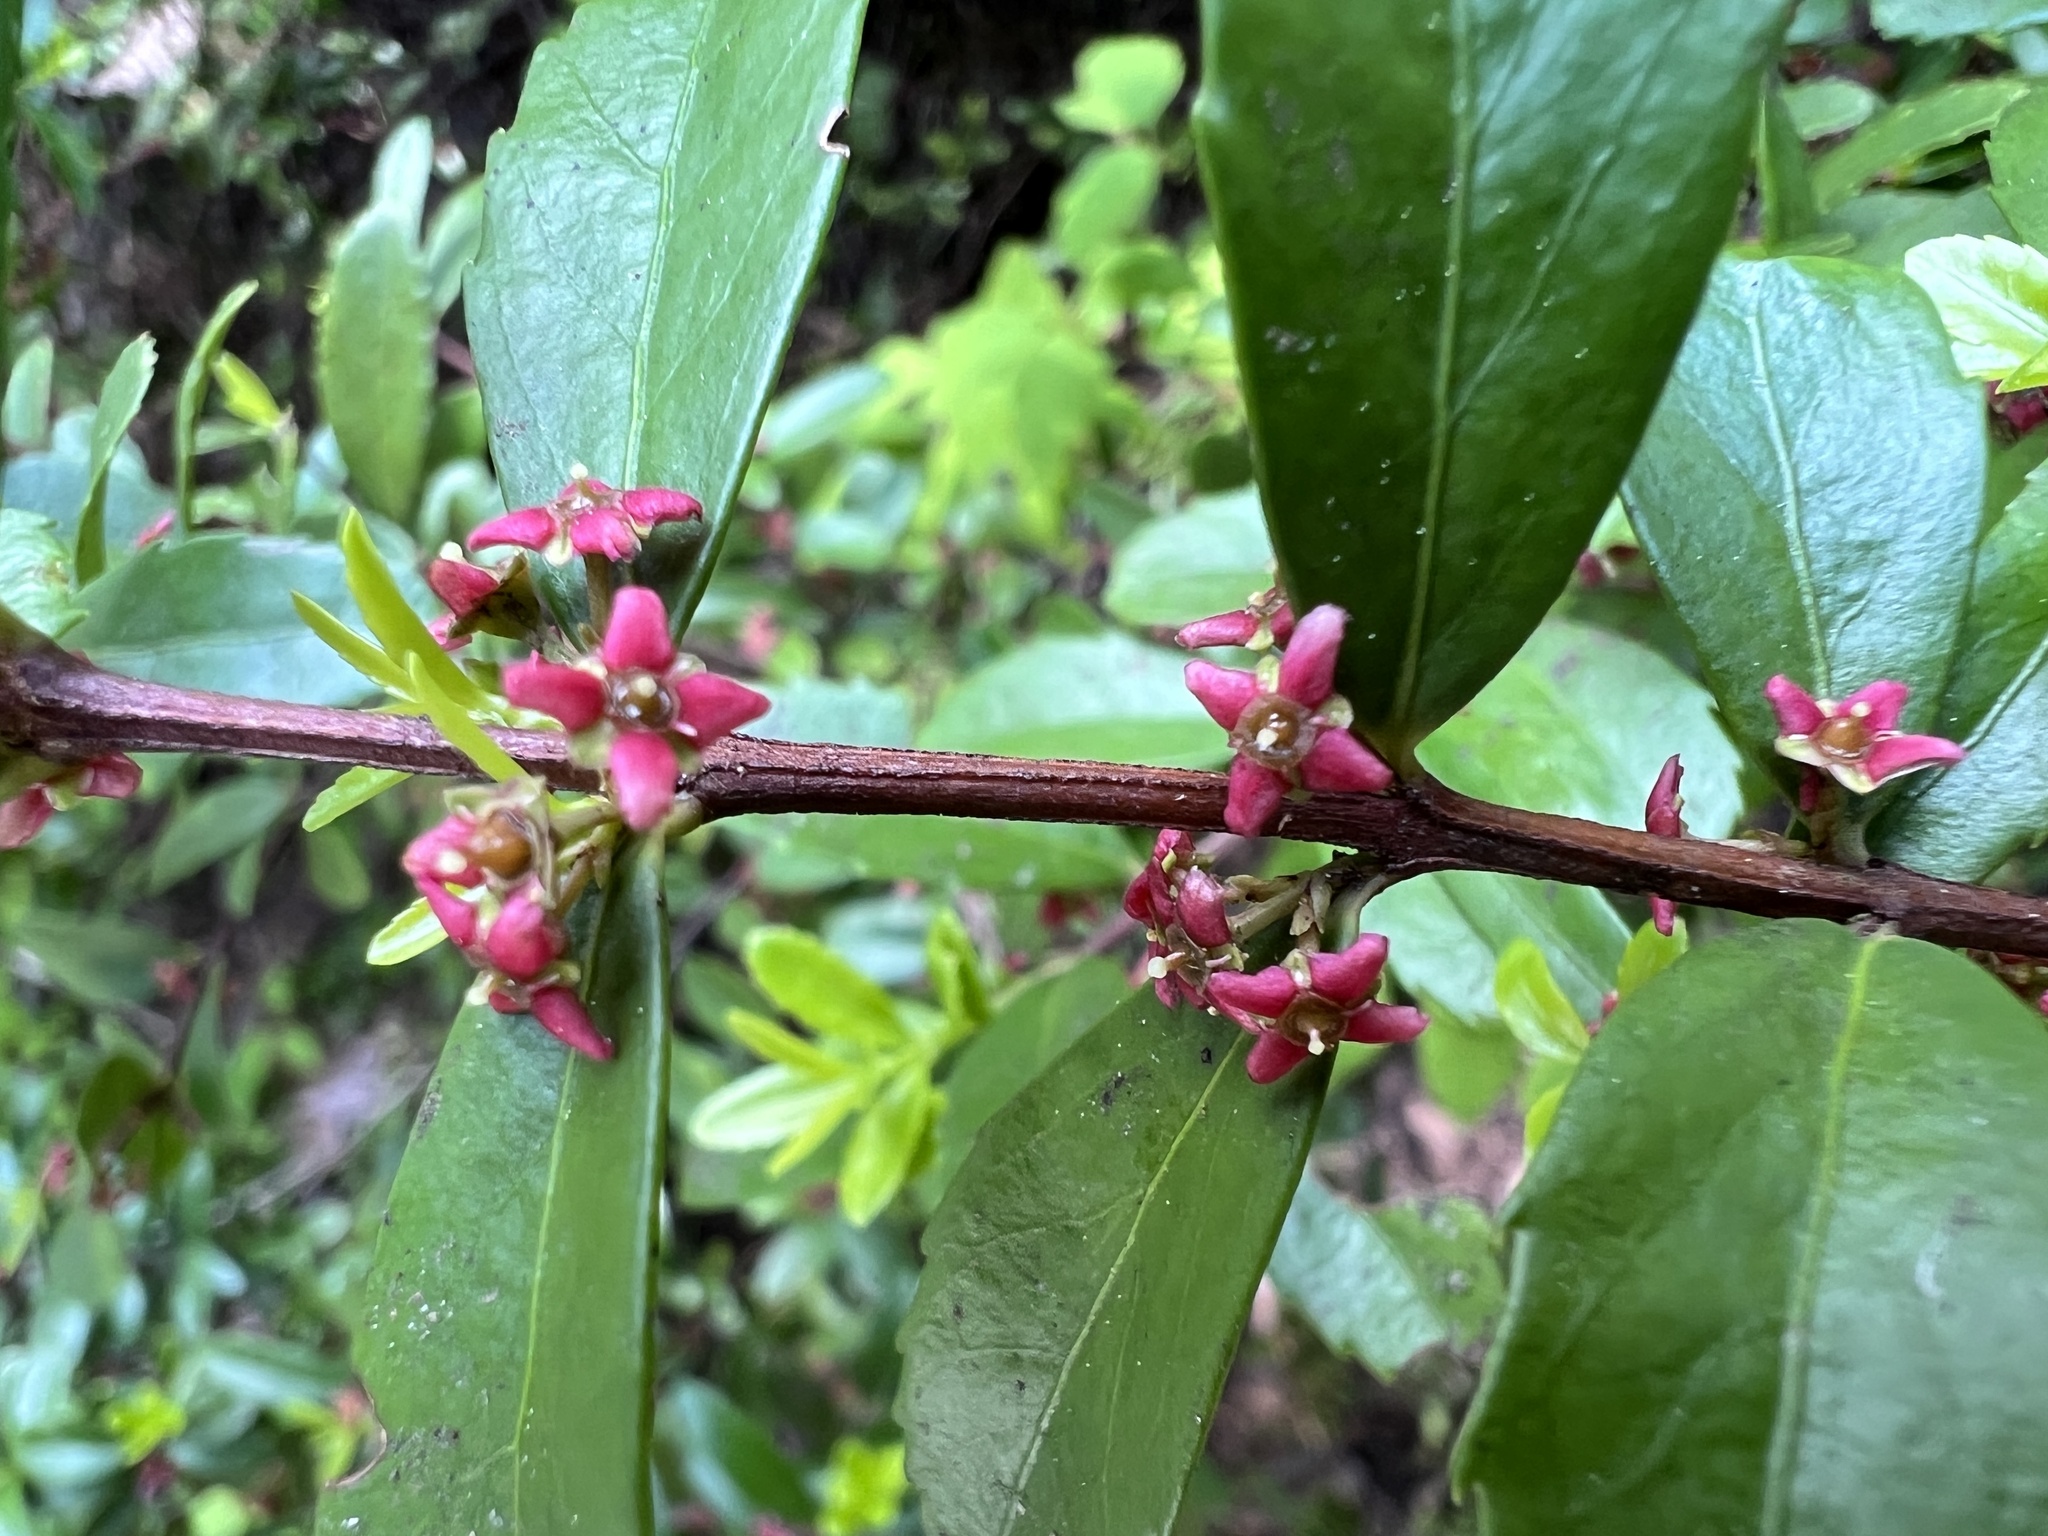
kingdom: Plantae
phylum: Tracheophyta
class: Magnoliopsida
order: Celastrales
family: Celastraceae
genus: Paxistima
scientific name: Paxistima myrsinites
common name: Mountain-lover
